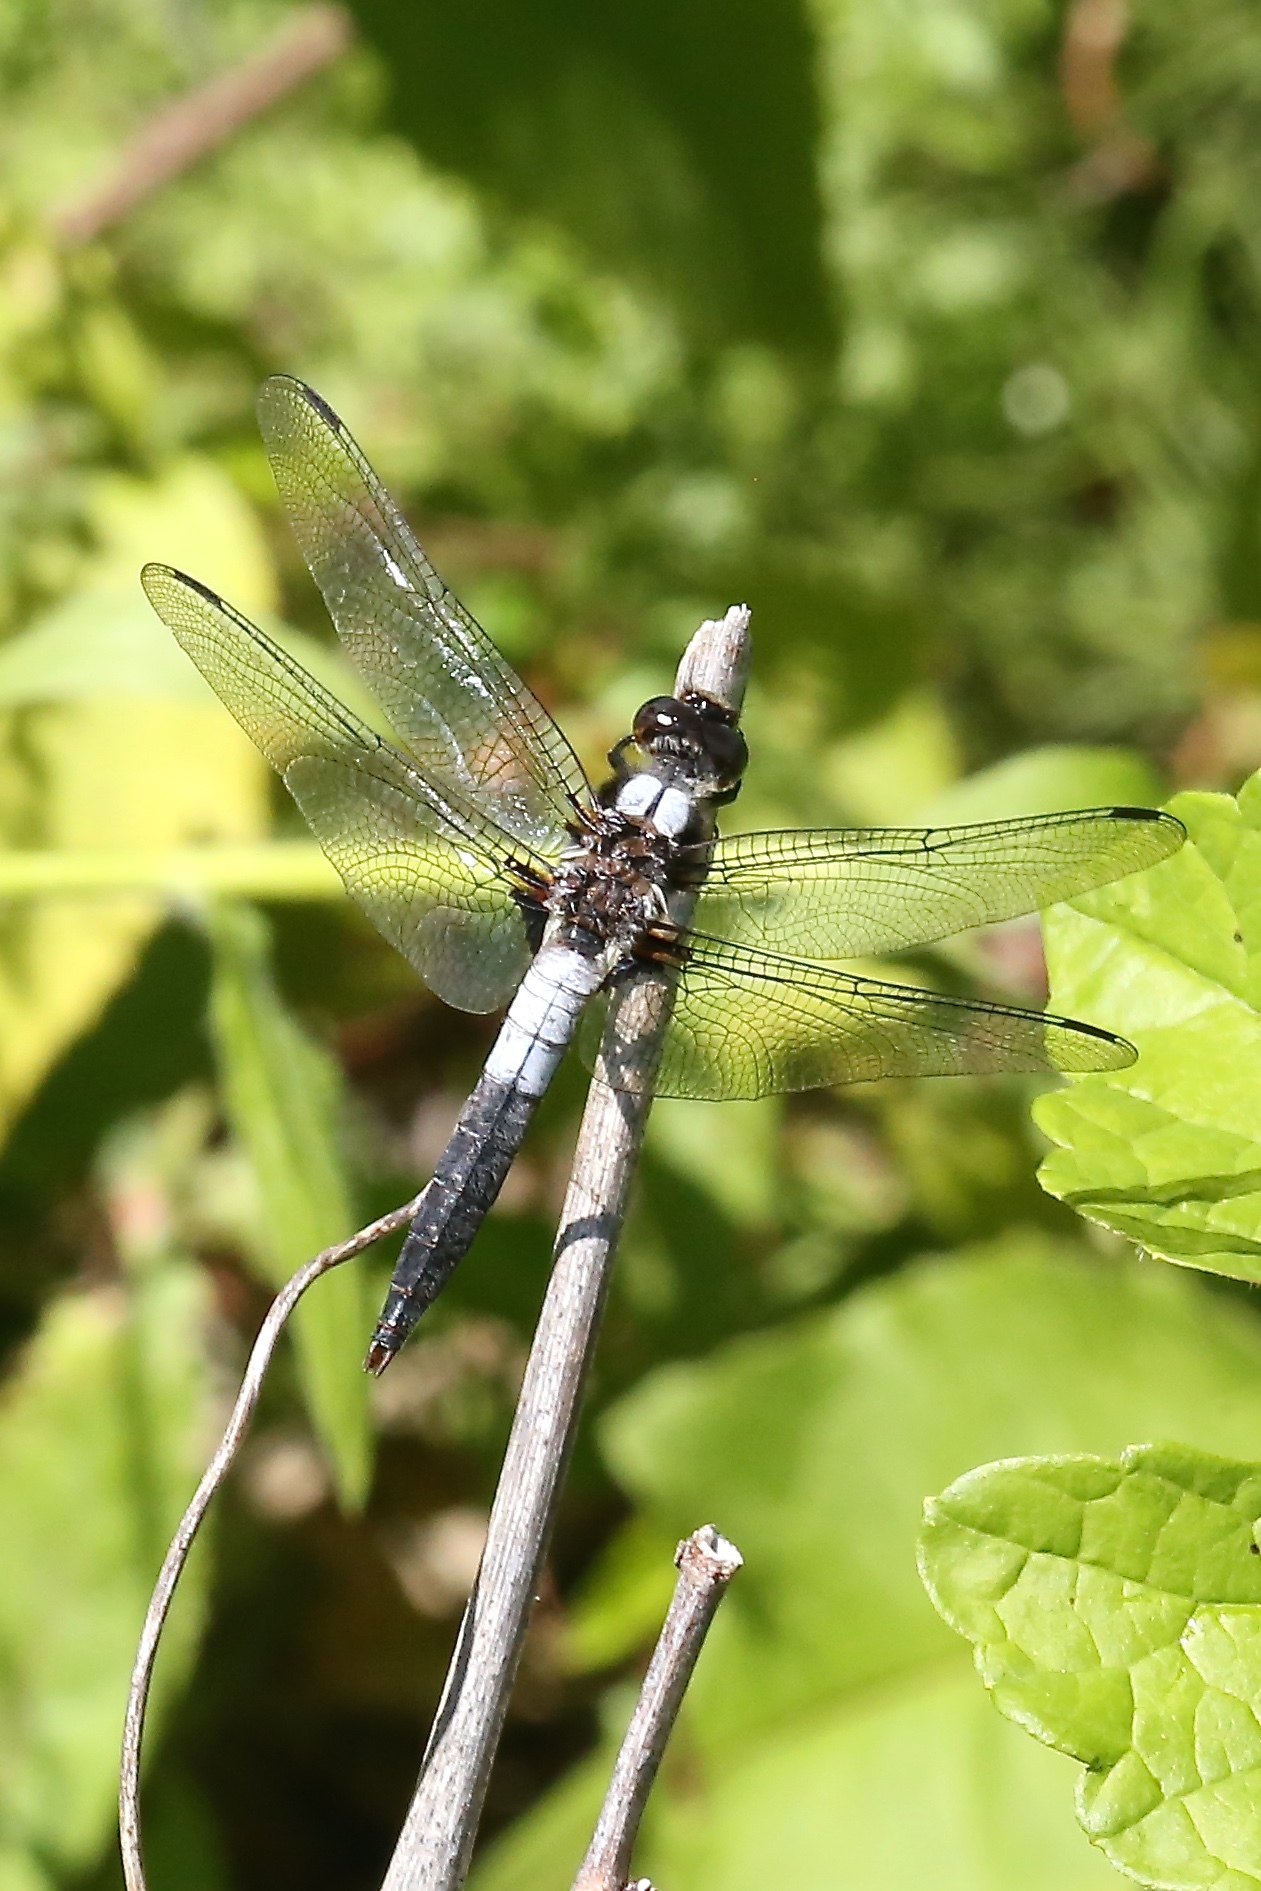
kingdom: Animalia
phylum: Arthropoda
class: Insecta
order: Odonata
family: Libellulidae
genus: Ladona
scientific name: Ladona julia
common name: Chalk-fronted corporal
